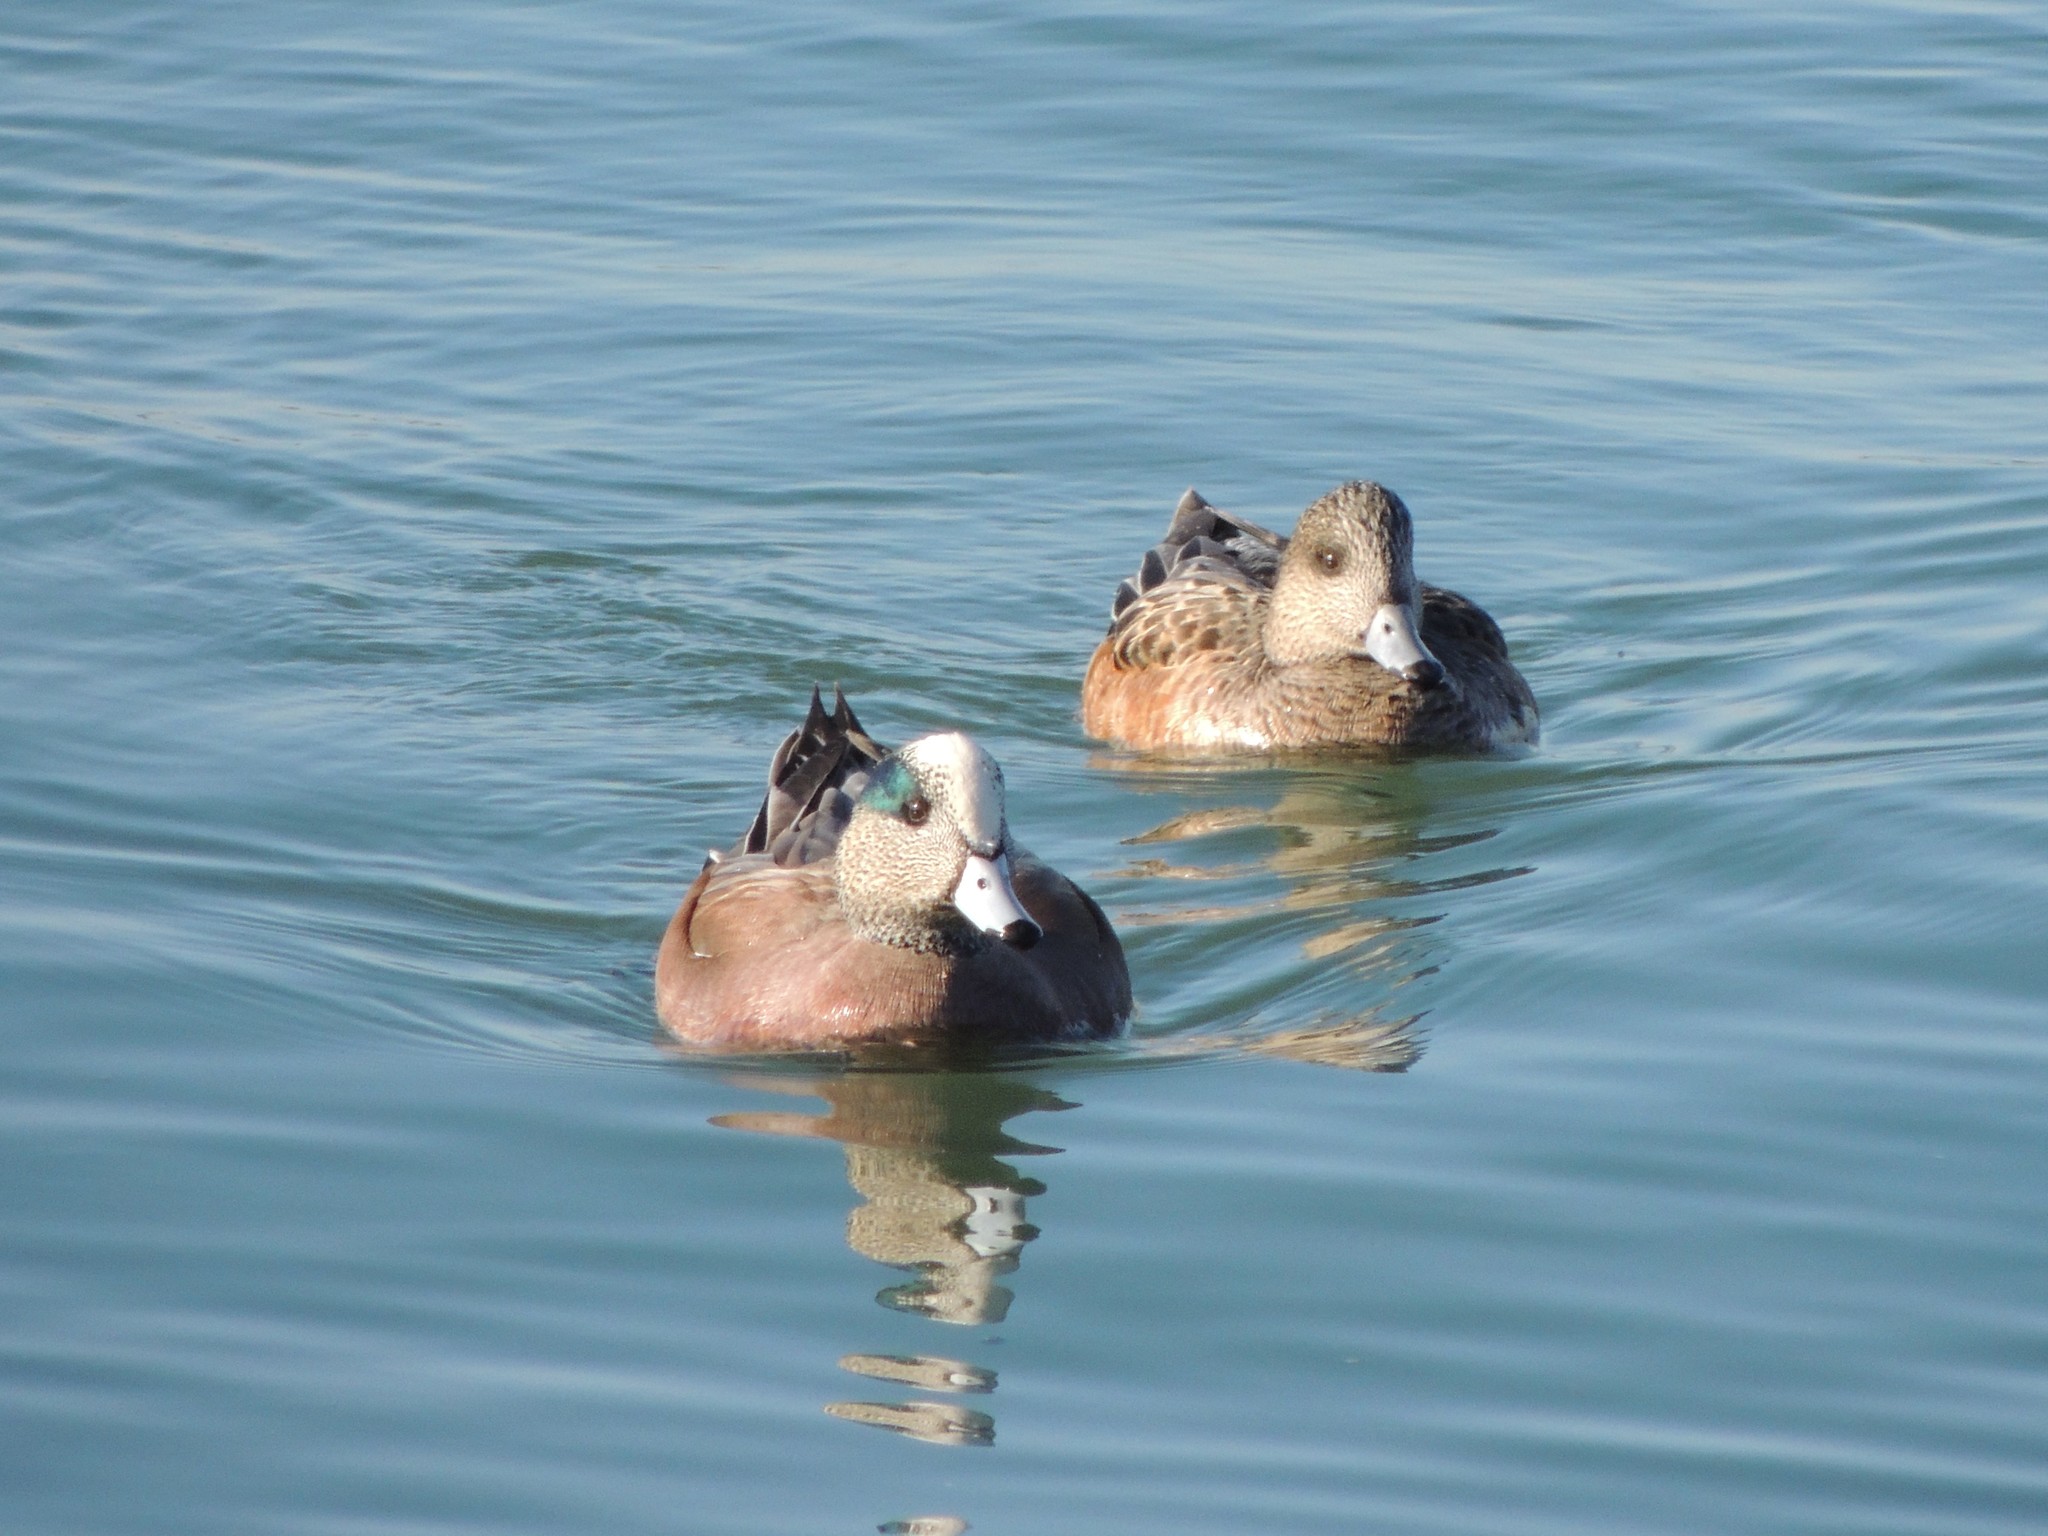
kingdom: Animalia
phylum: Chordata
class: Aves
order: Anseriformes
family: Anatidae
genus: Mareca
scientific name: Mareca americana
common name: American wigeon
